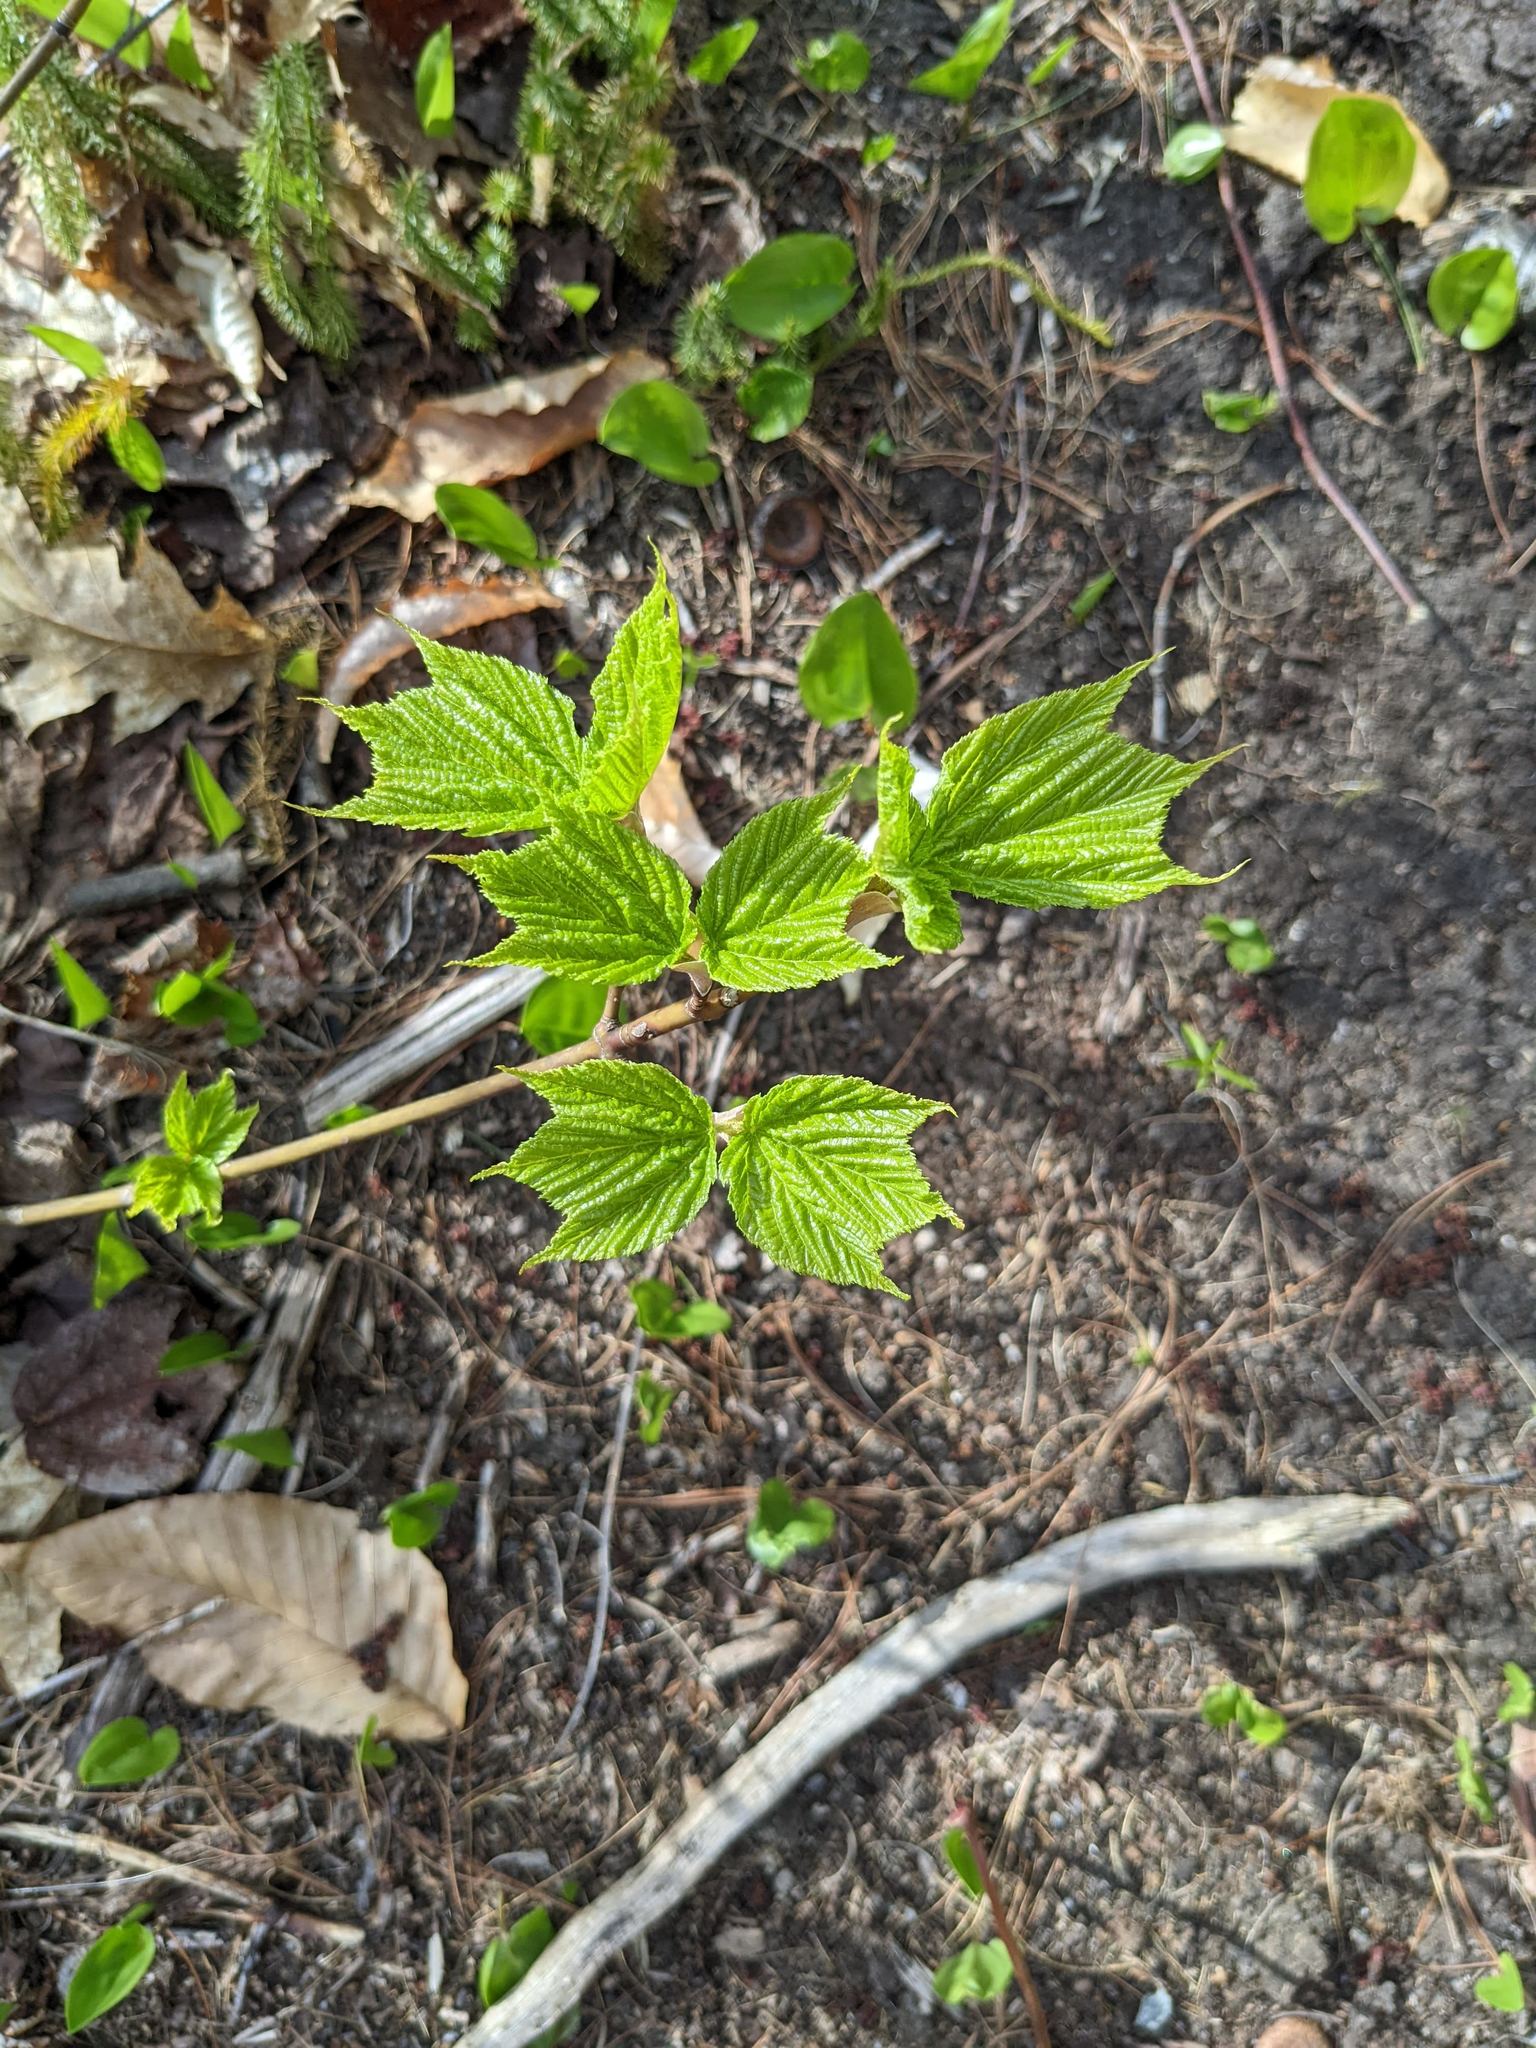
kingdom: Plantae
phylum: Tracheophyta
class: Magnoliopsida
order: Sapindales
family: Sapindaceae
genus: Acer
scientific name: Acer pensylvanicum
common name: Moosewood
